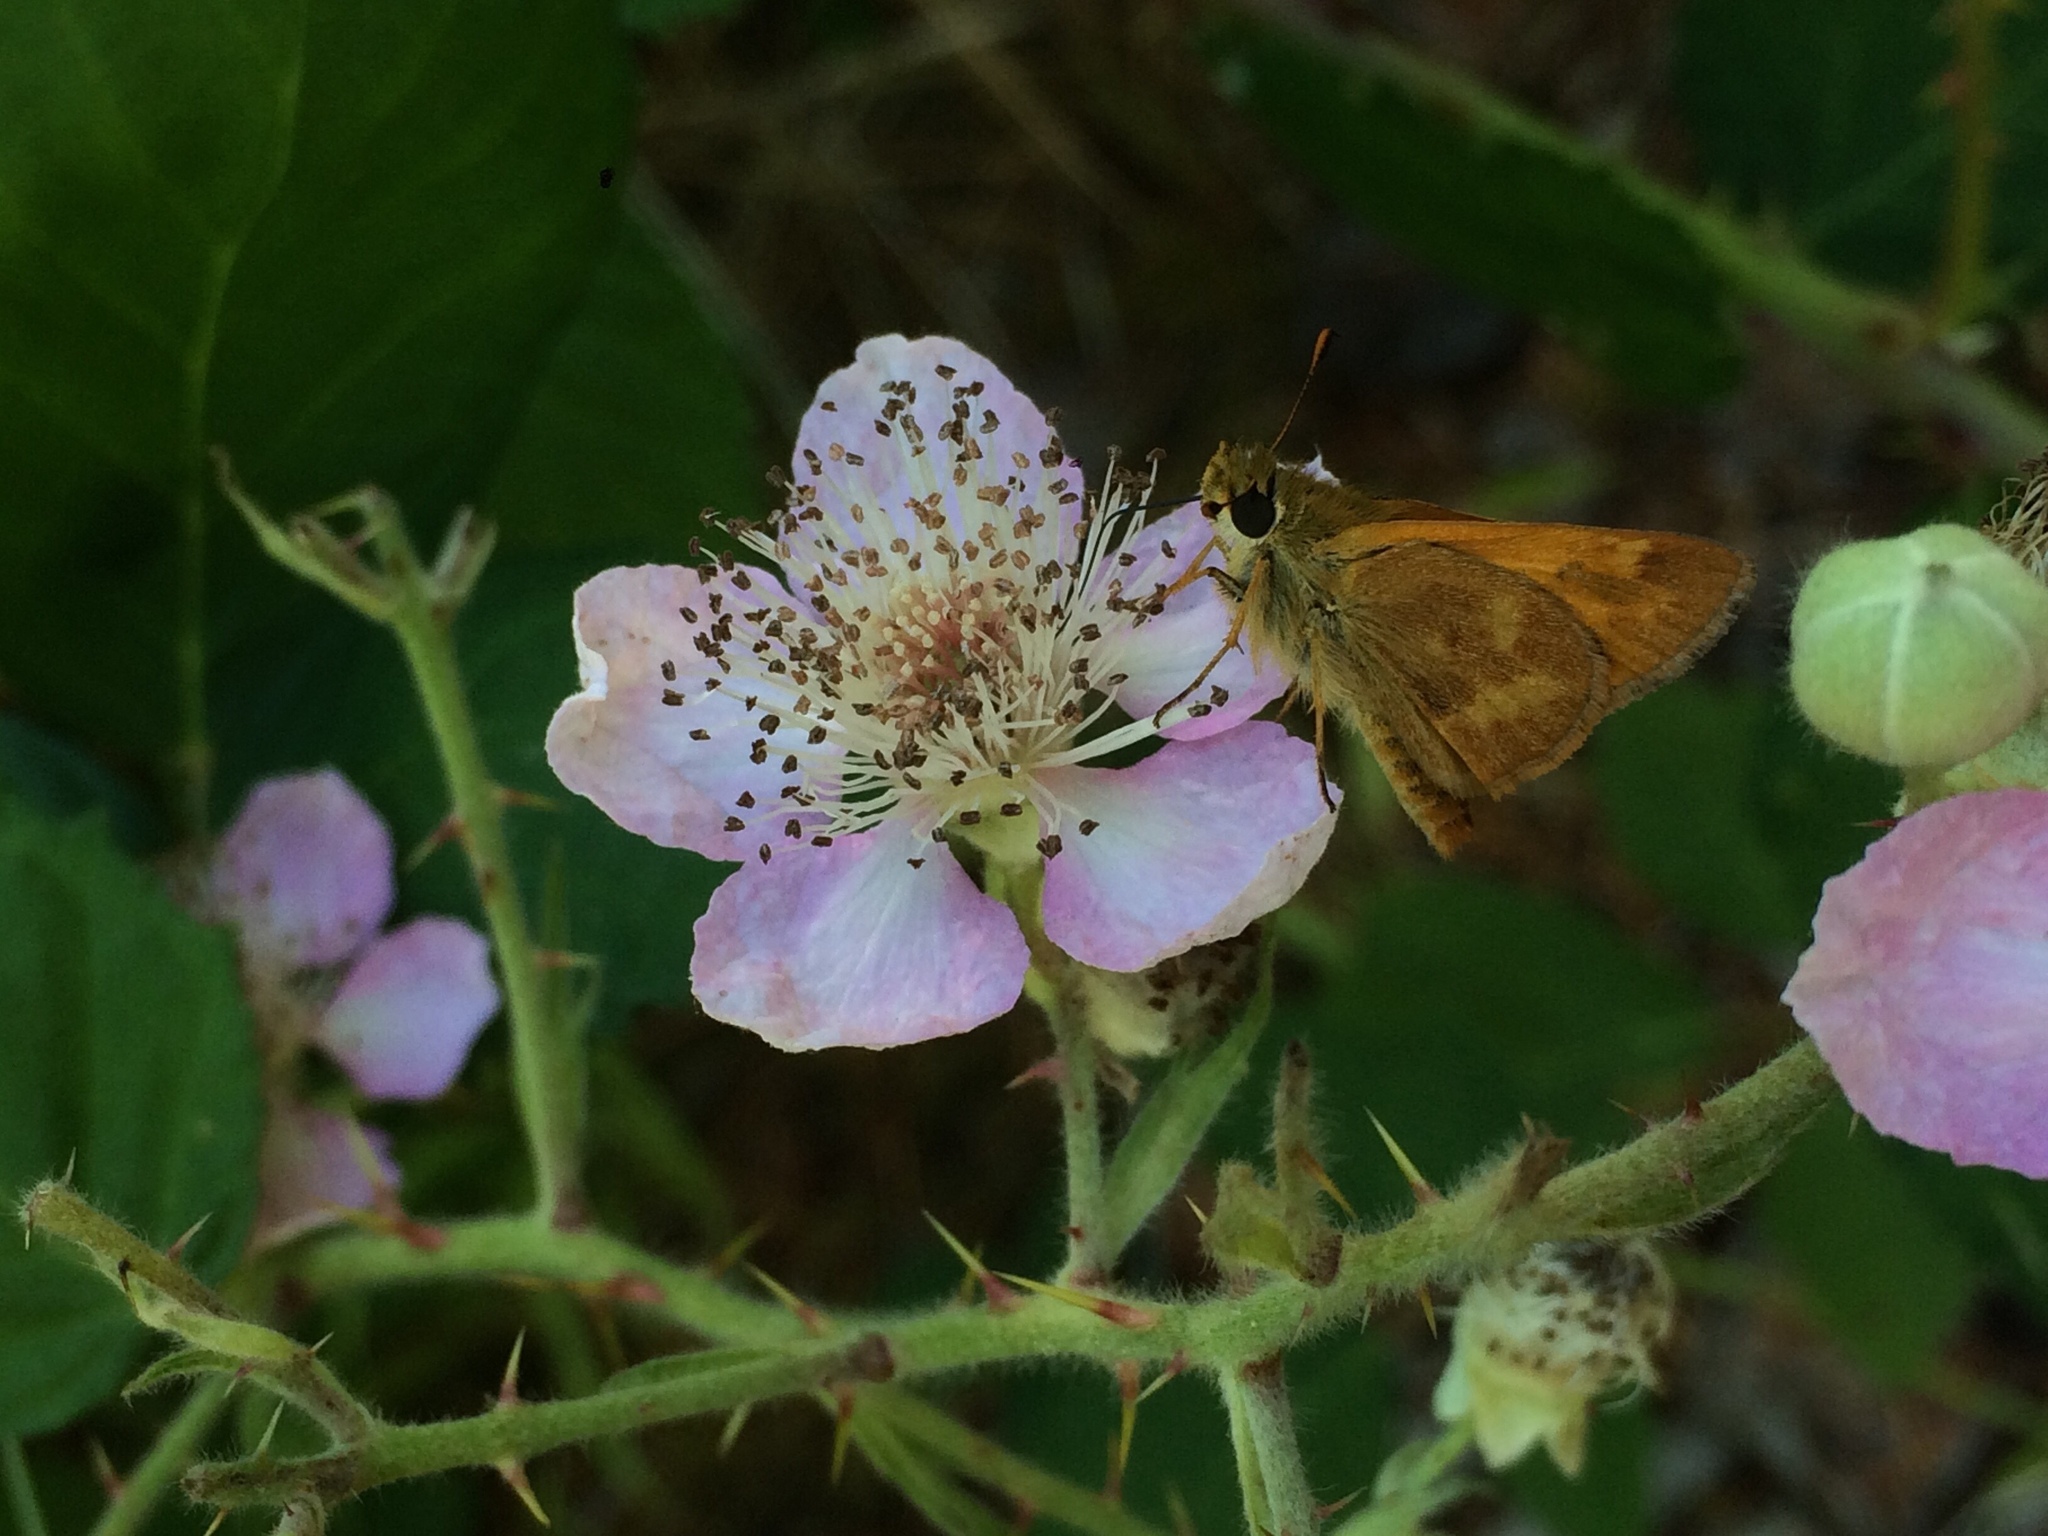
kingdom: Animalia
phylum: Arthropoda
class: Insecta
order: Lepidoptera
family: Hesperiidae
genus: Ochlodes
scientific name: Ochlodes sylvanoides
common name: Woodland skipper
